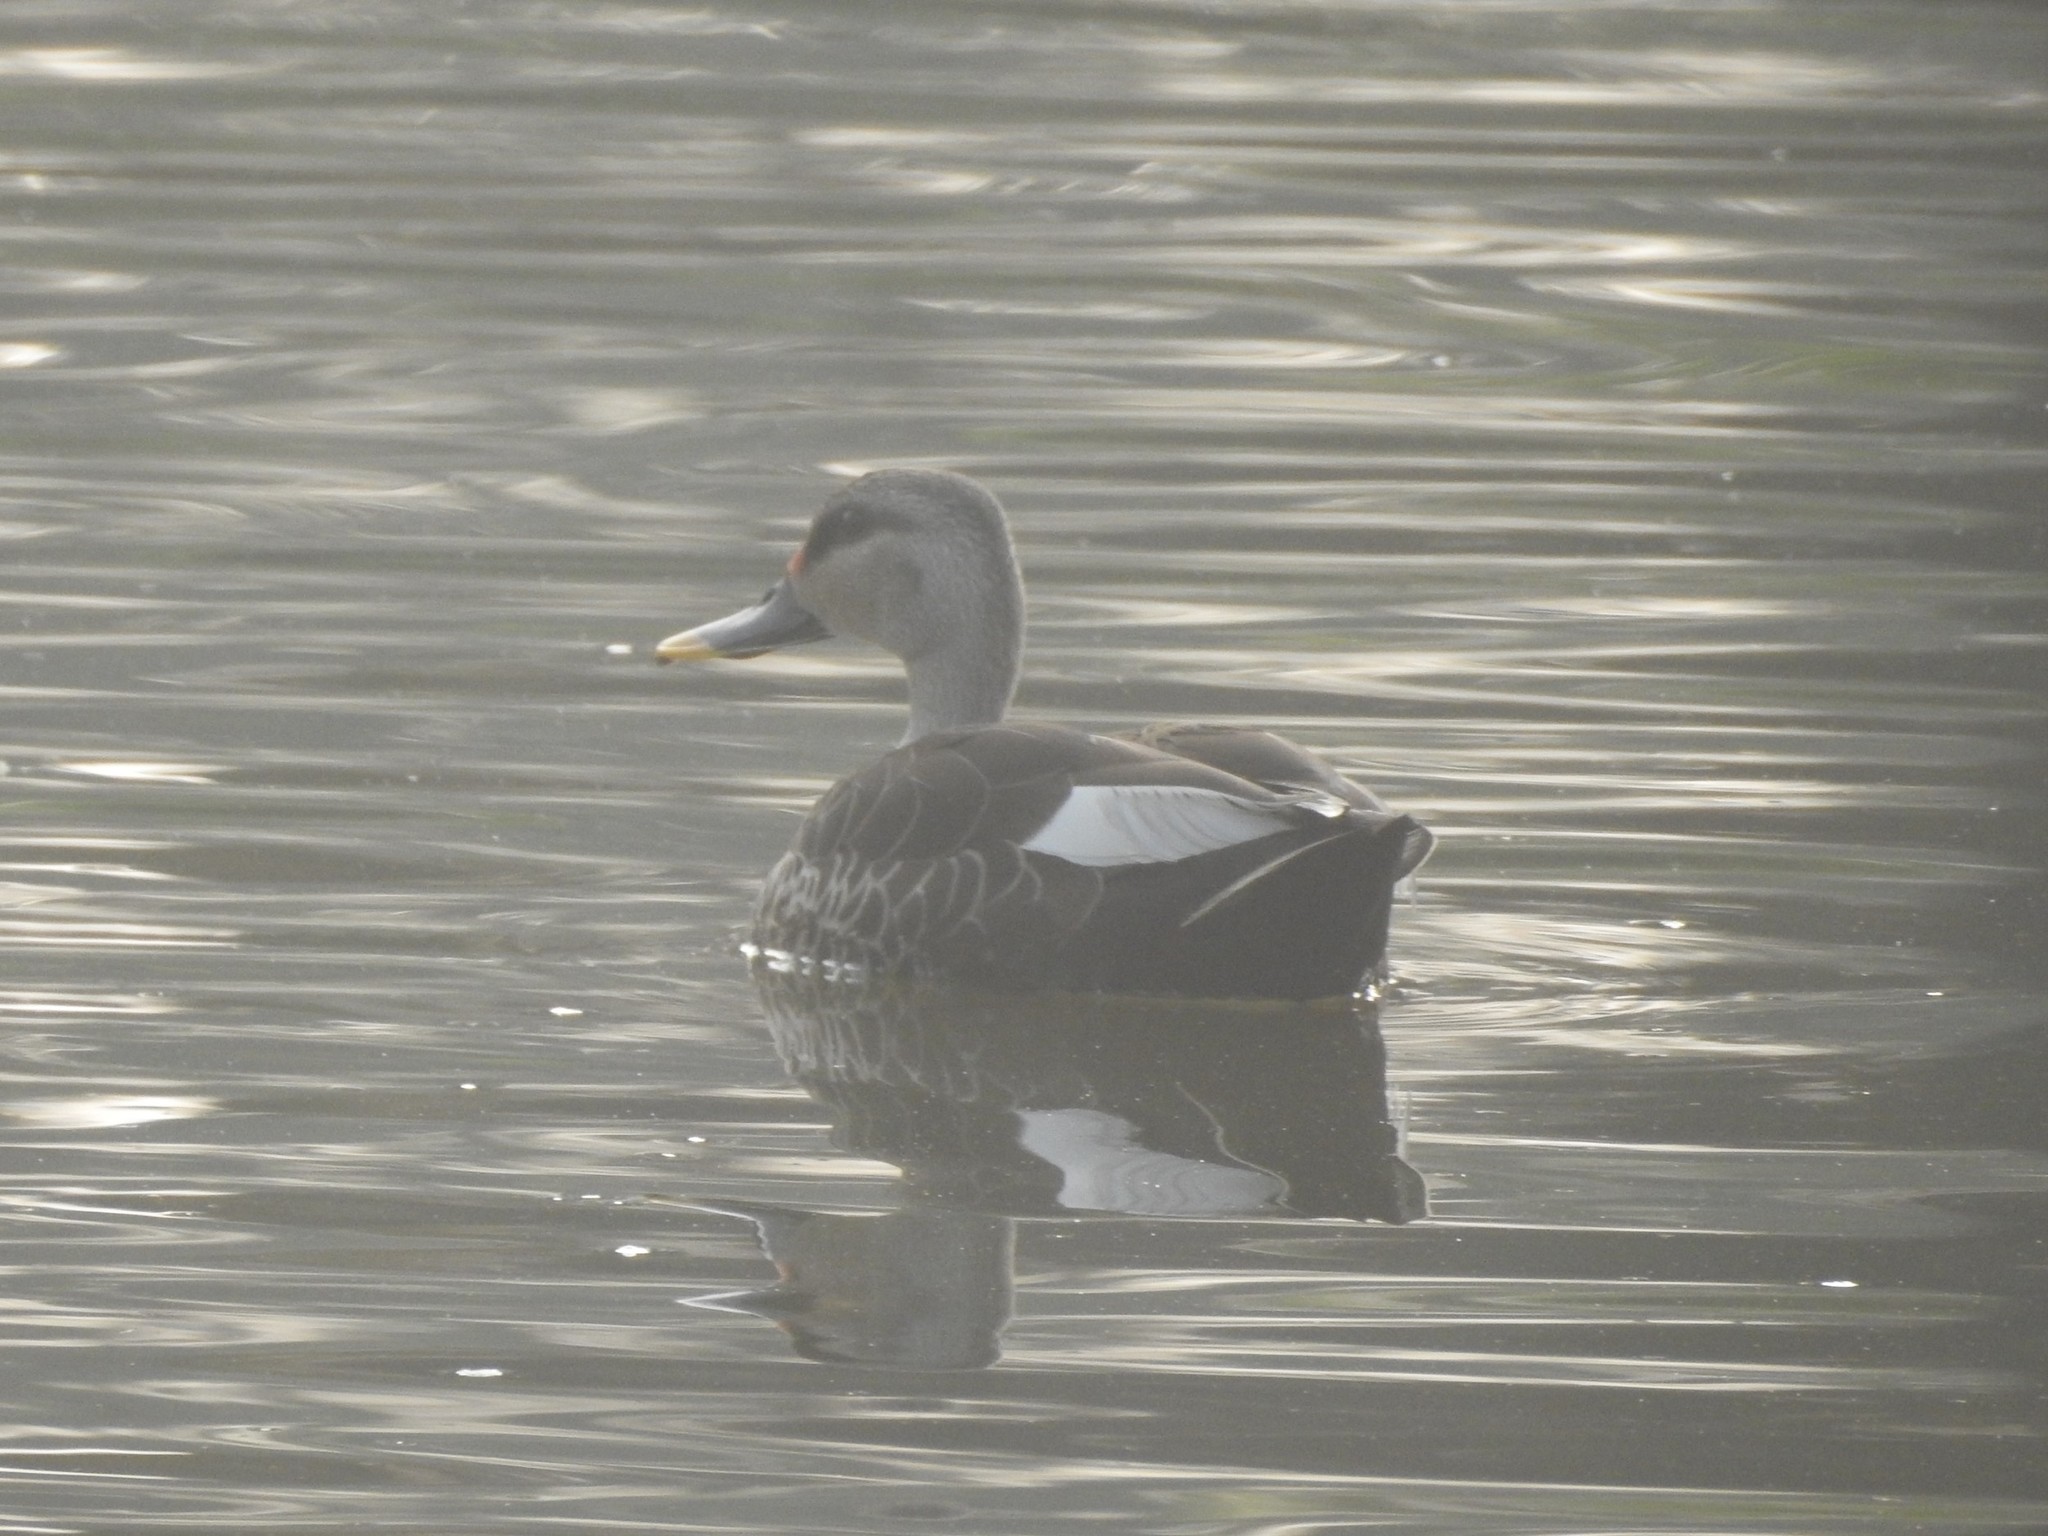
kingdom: Animalia
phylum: Chordata
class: Aves
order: Anseriformes
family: Anatidae
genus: Anas
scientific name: Anas poecilorhyncha
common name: Indian spot-billed duck
